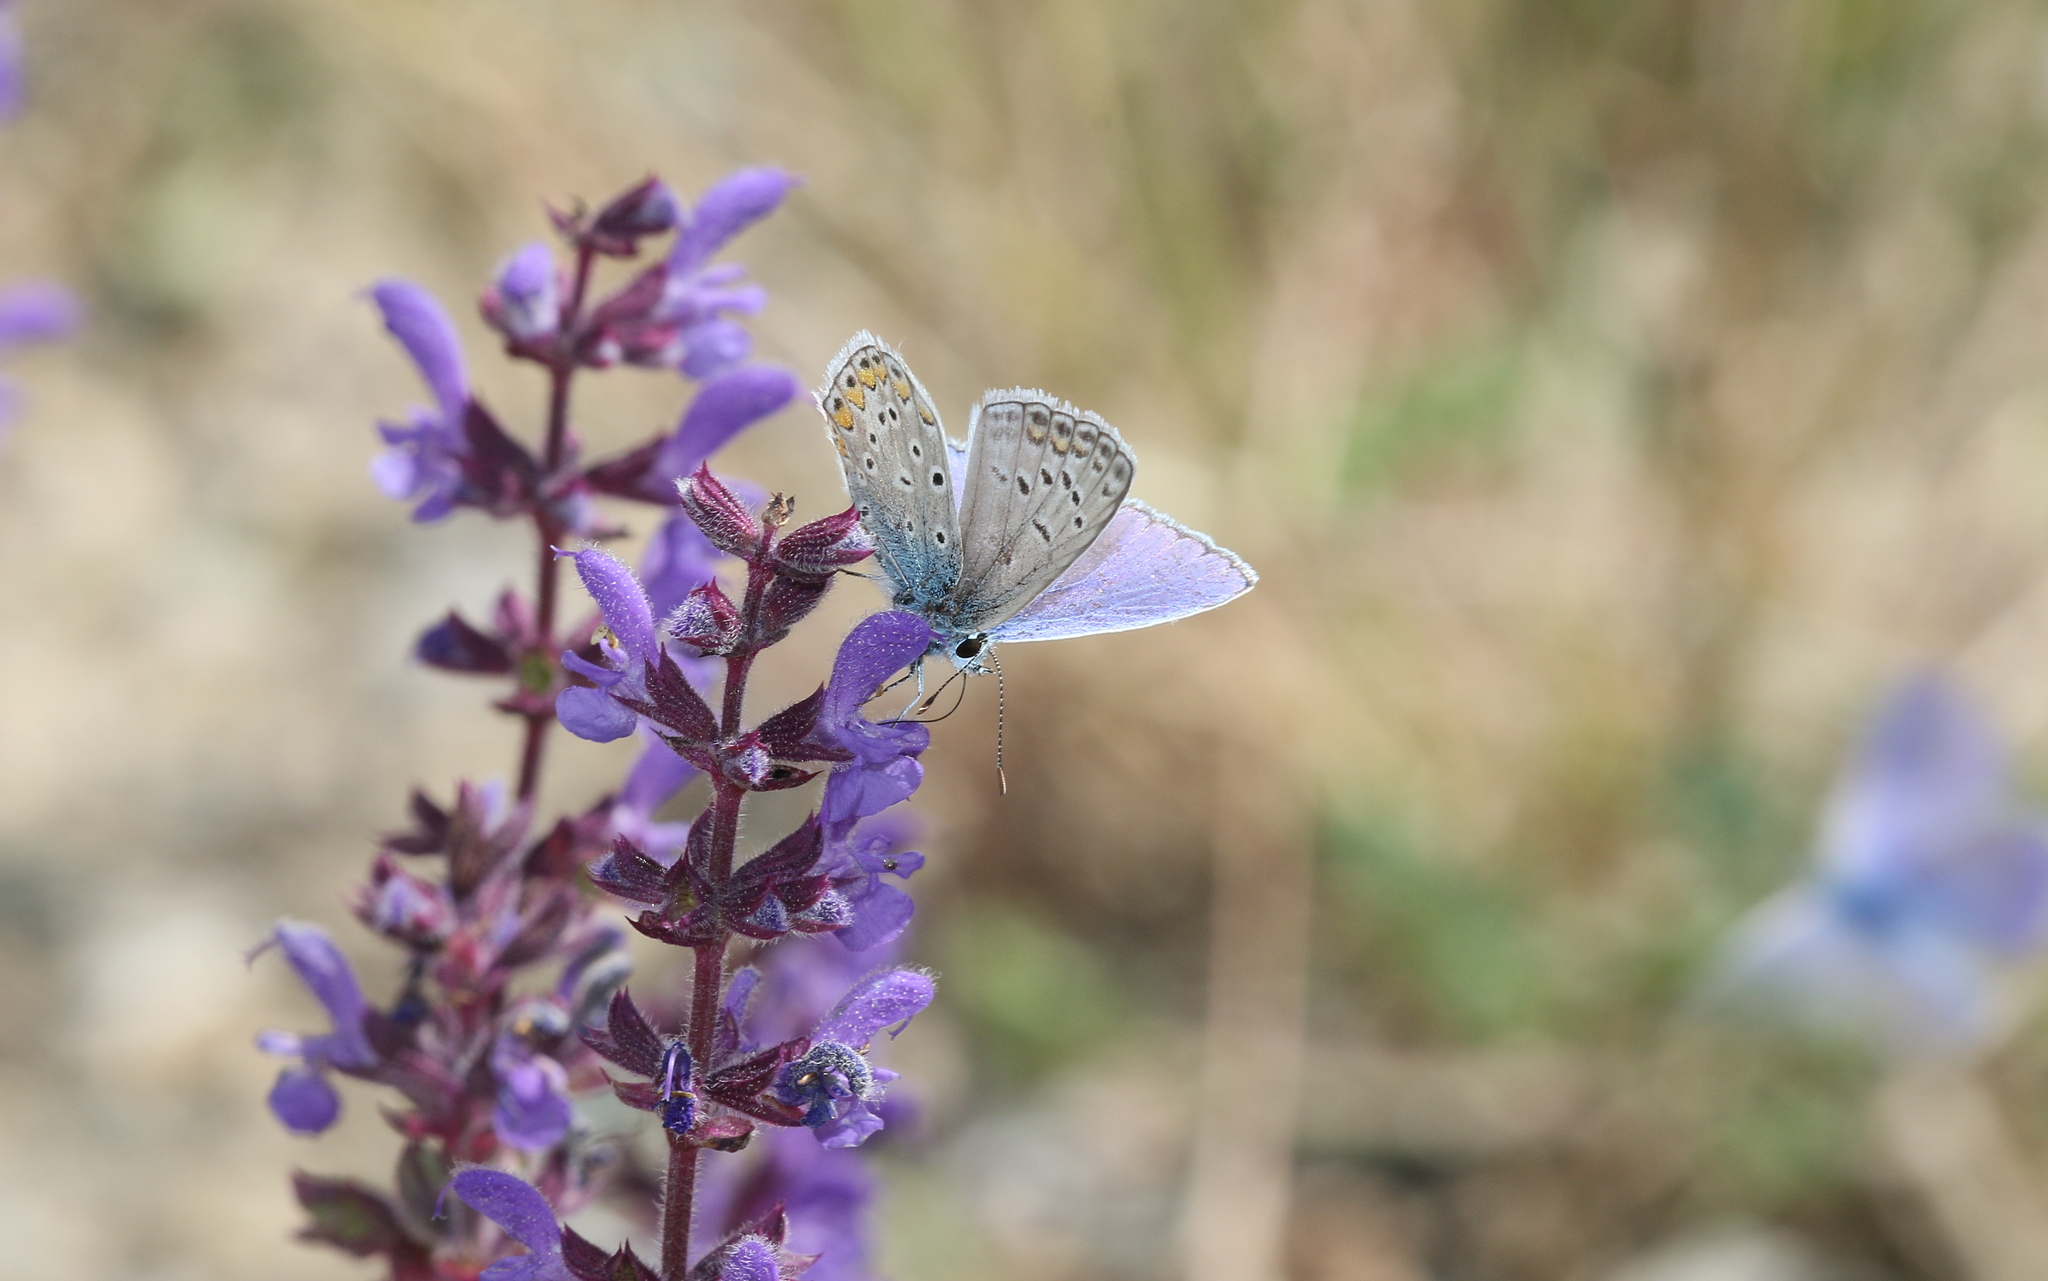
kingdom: Animalia
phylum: Arthropoda
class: Insecta
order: Lepidoptera
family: Lycaenidae
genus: Polyommatus
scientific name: Polyommatus icarus
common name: Common blue
